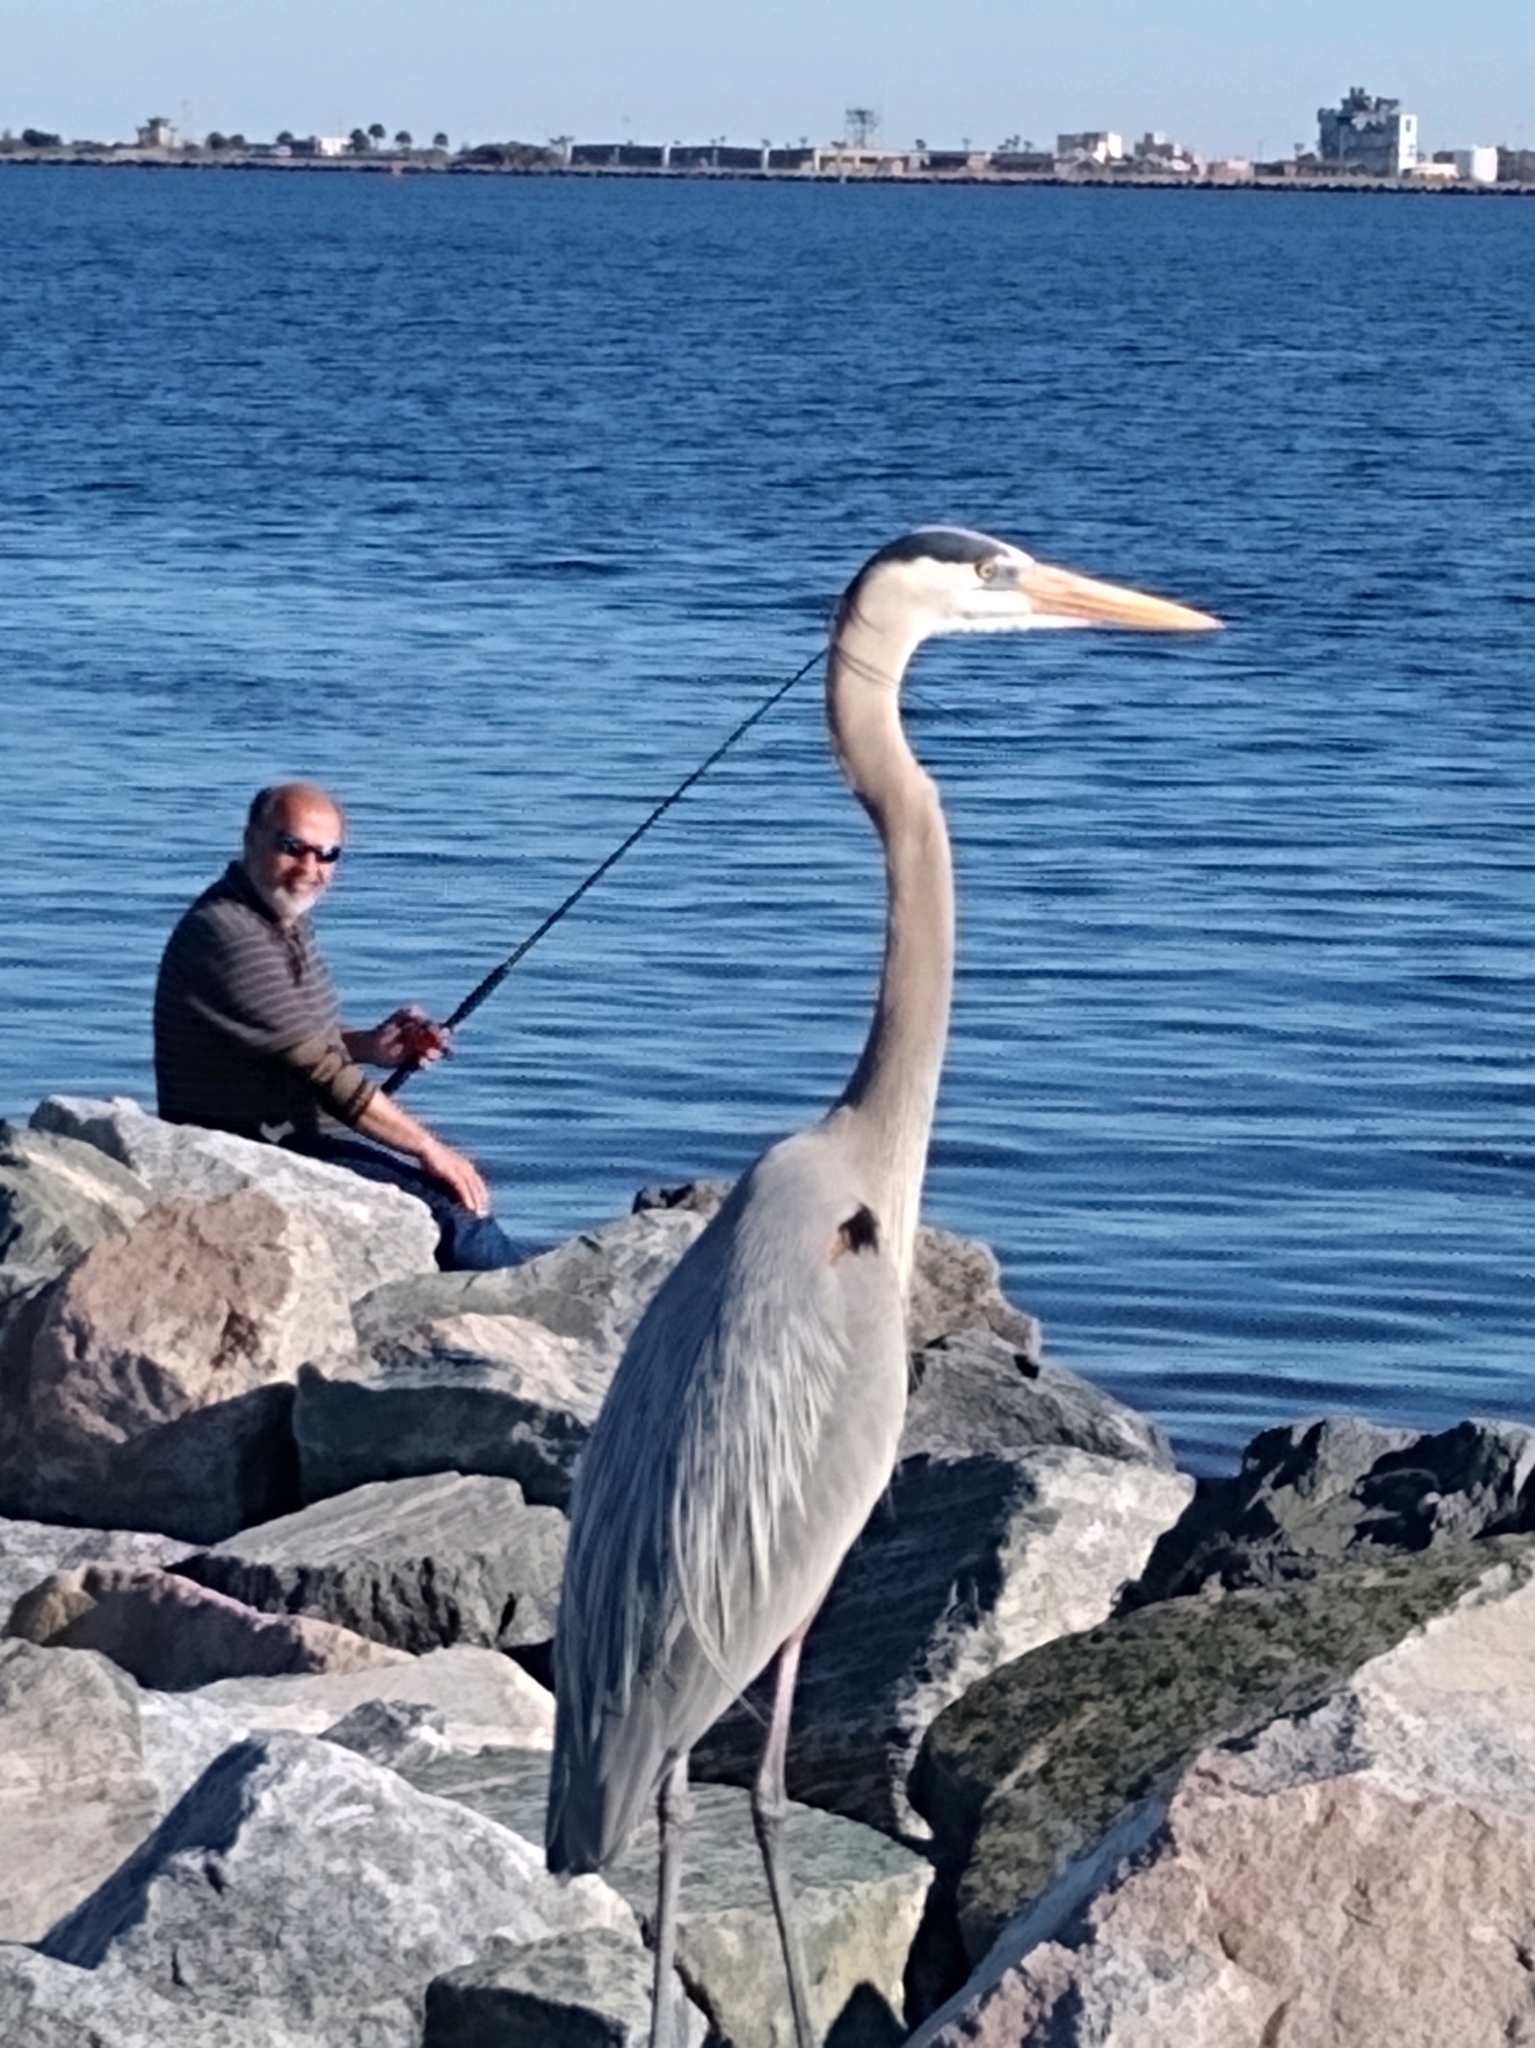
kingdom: Animalia
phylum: Chordata
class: Aves
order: Pelecaniformes
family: Ardeidae
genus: Ardea
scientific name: Ardea herodias
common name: Great blue heron
